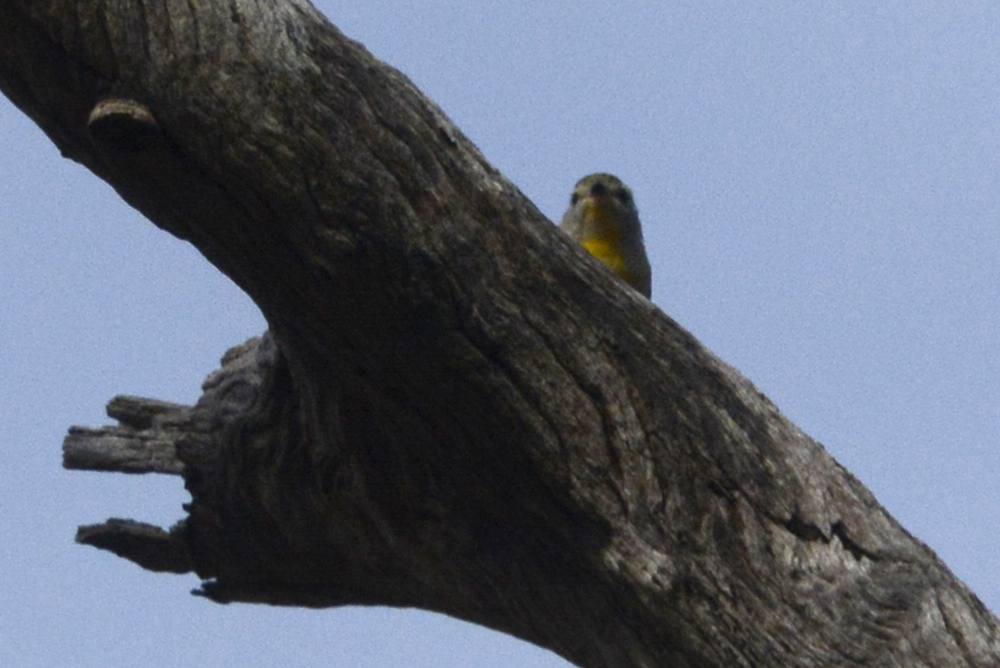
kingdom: Animalia
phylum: Chordata
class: Aves
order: Passeriformes
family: Pardalotidae
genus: Pardalotus
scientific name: Pardalotus punctatus
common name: Spotted pardalote
